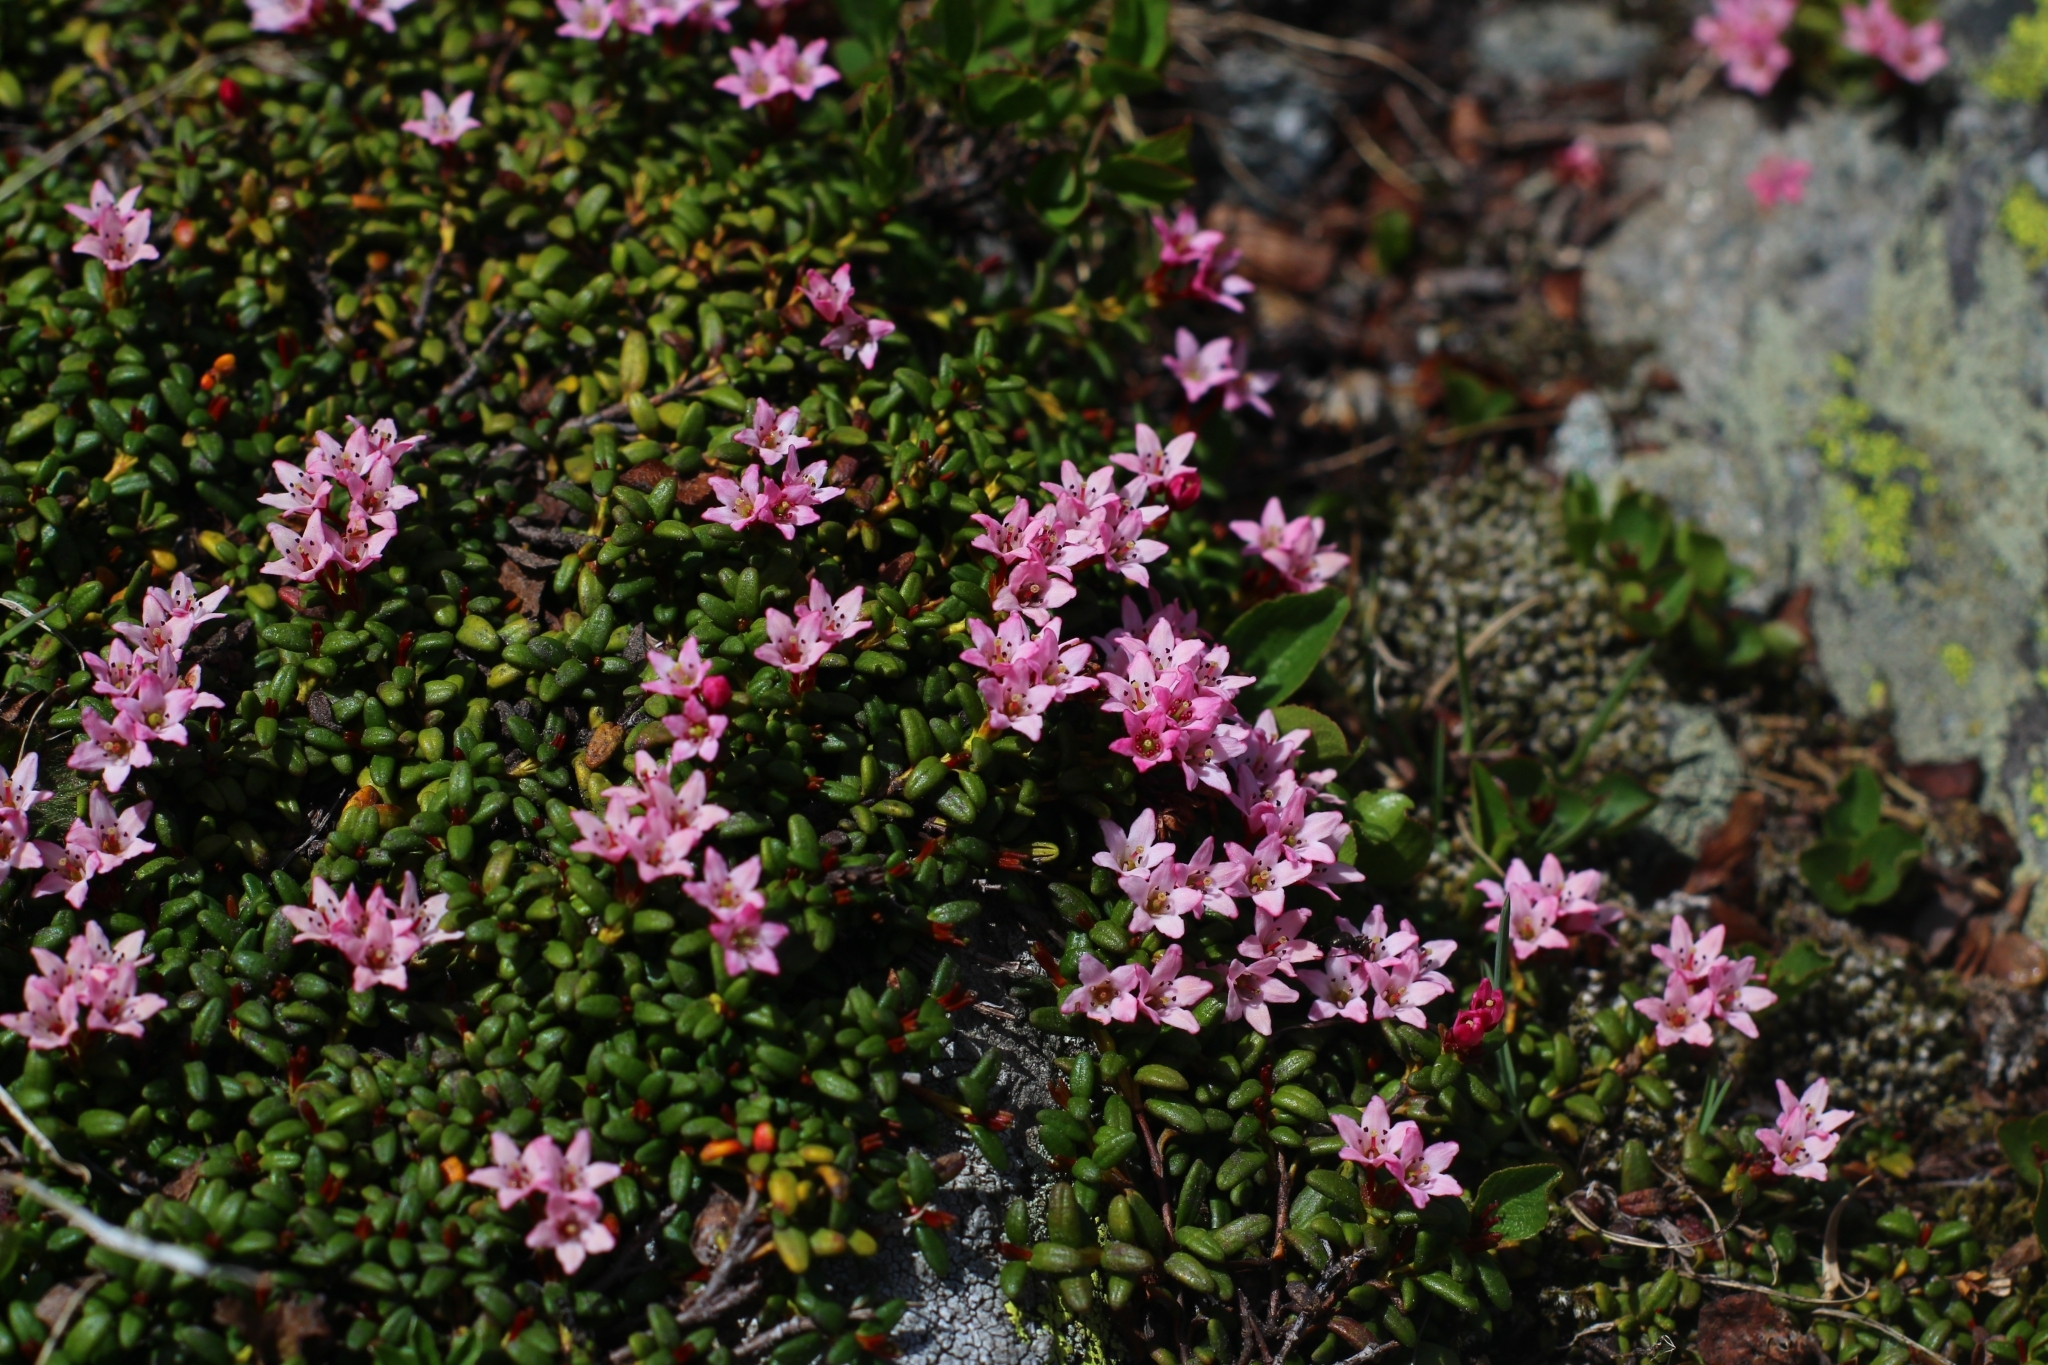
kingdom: Plantae
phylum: Tracheophyta
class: Magnoliopsida
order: Ericales
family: Ericaceae
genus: Kalmia
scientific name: Kalmia procumbens
